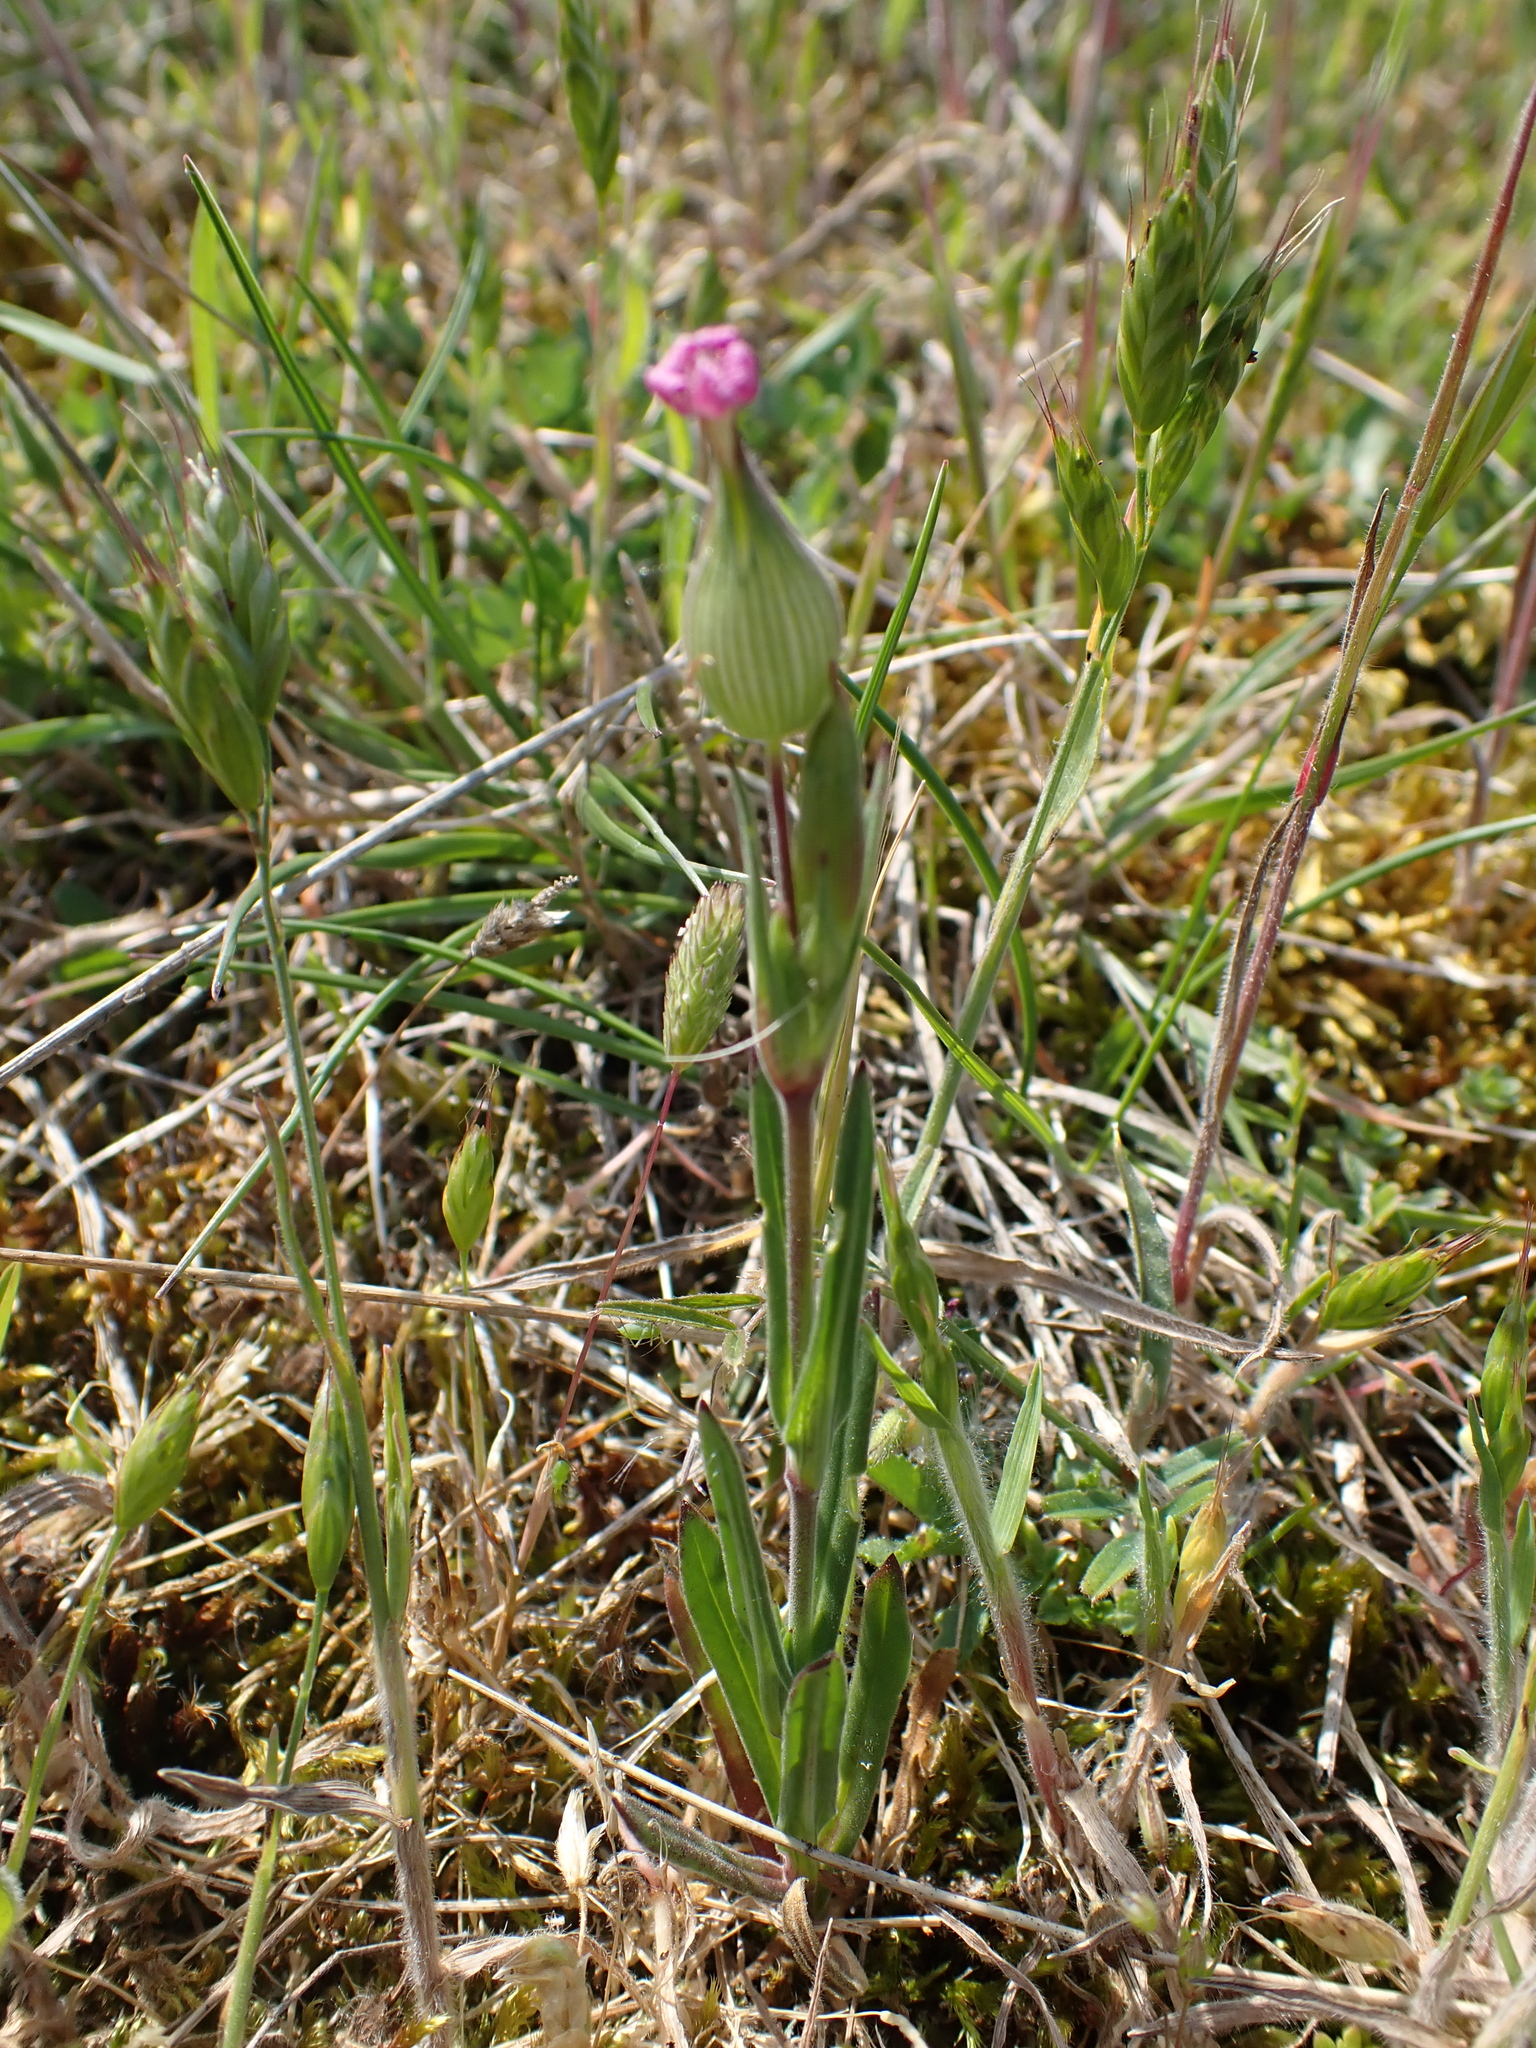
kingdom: Plantae
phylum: Tracheophyta
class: Magnoliopsida
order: Caryophyllales
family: Caryophyllaceae
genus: Silene
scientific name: Silene conica
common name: Sand catchfly
